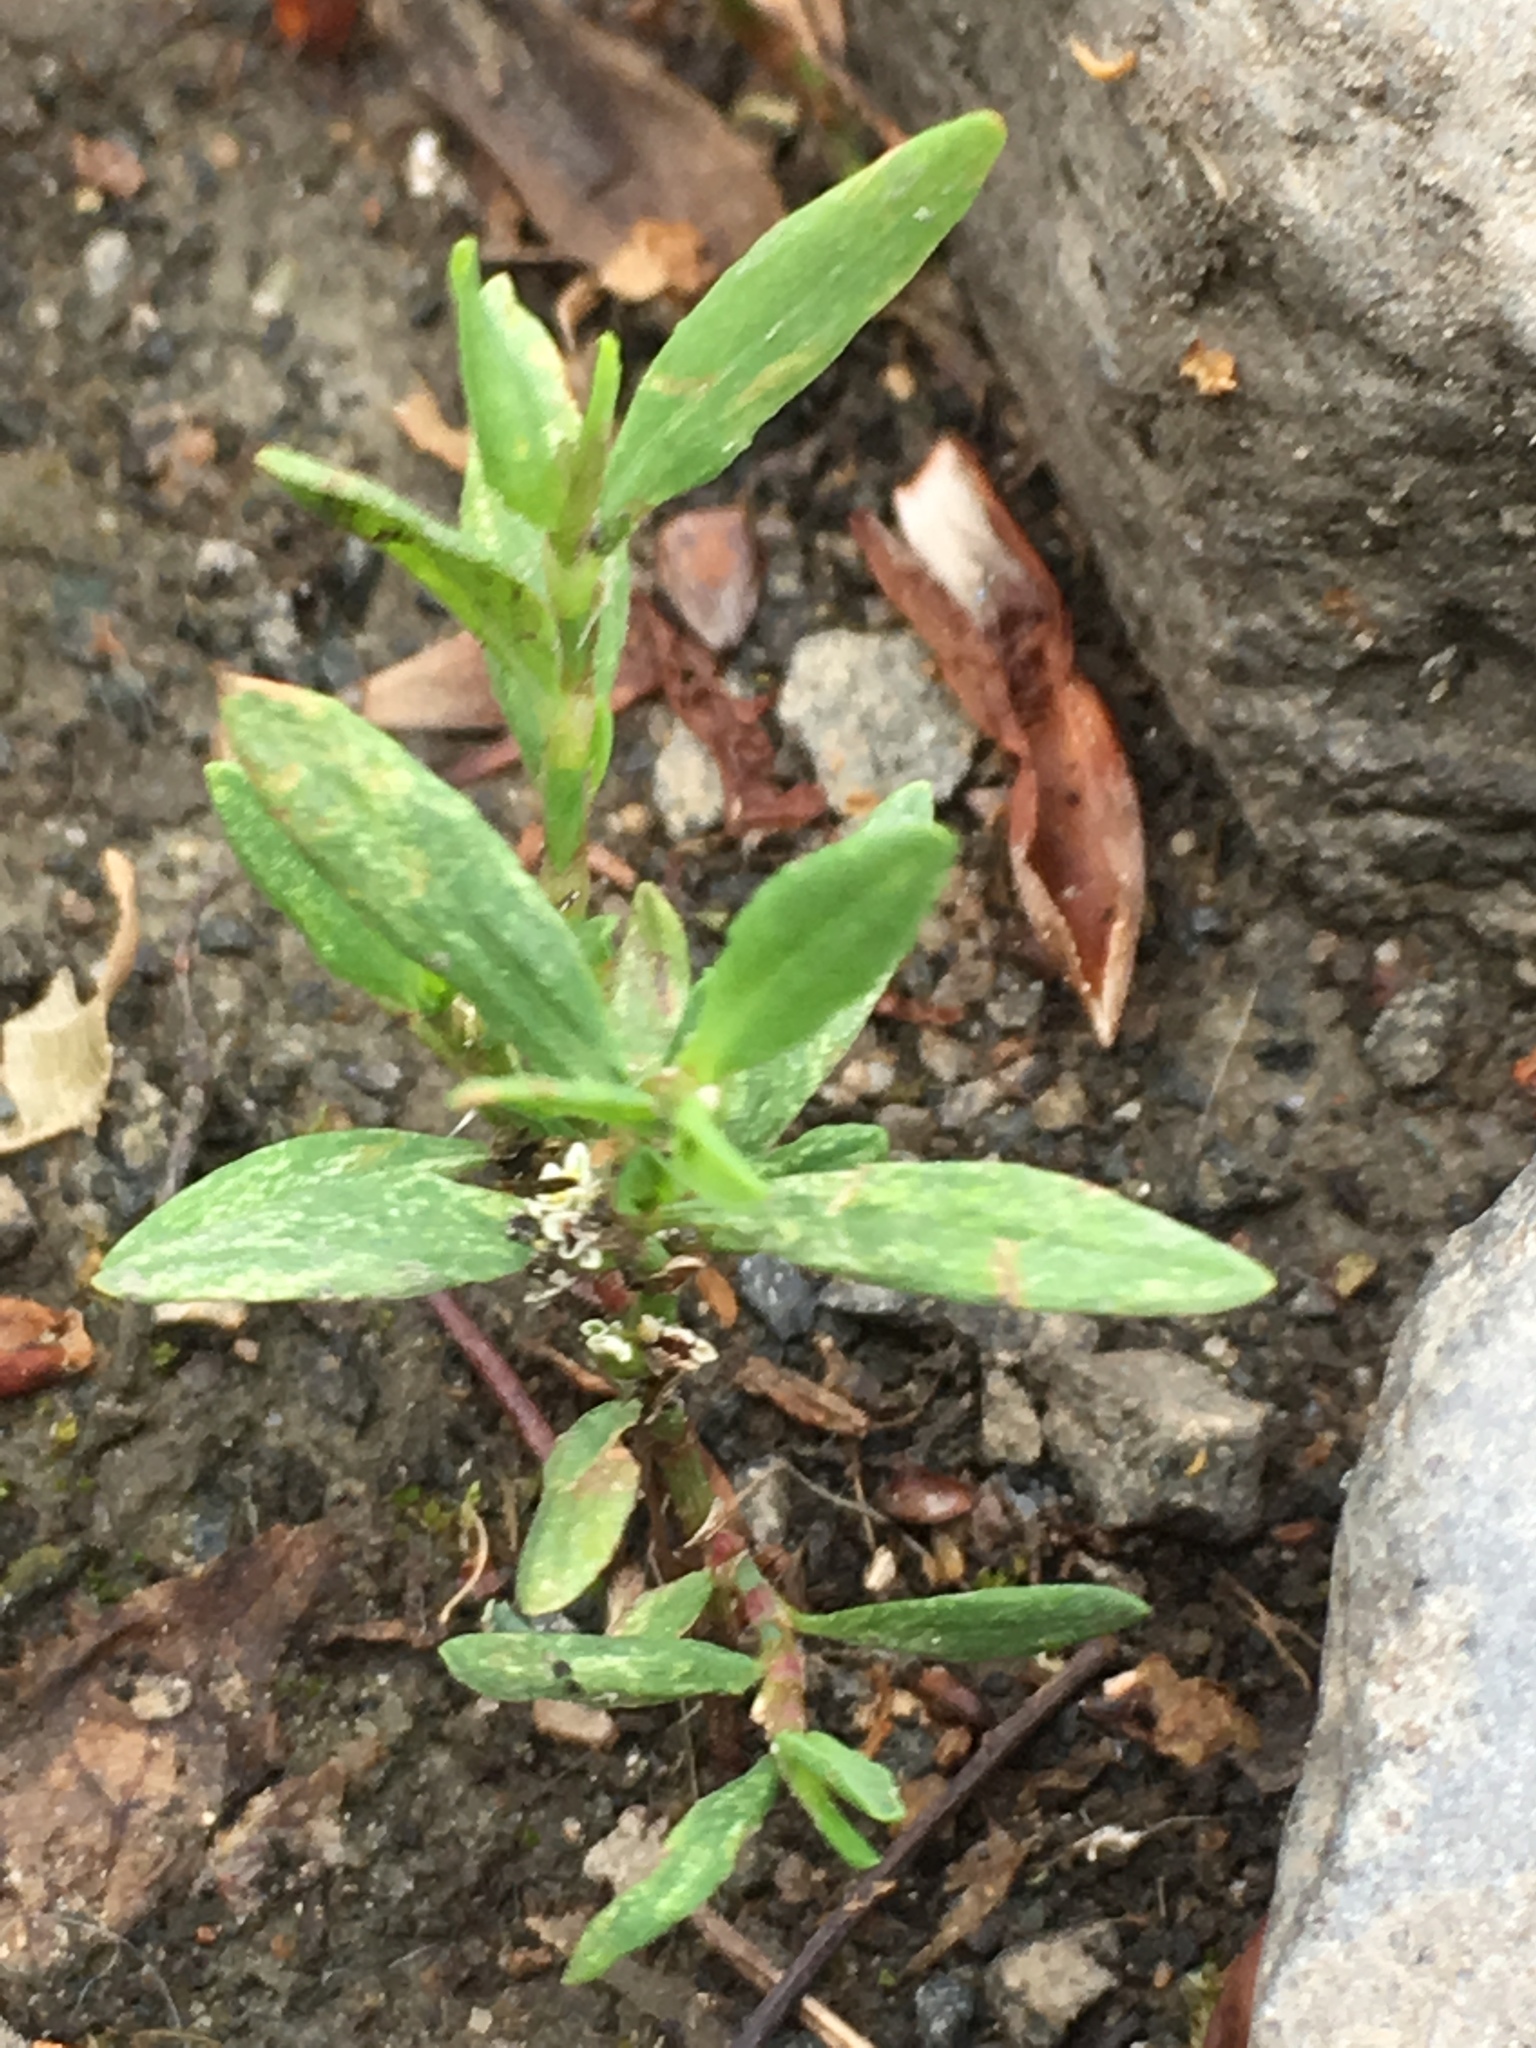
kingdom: Plantae
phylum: Tracheophyta
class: Magnoliopsida
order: Caryophyllales
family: Polygonaceae
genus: Polygonum
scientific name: Polygonum aviculare
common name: Prostrate knotweed
